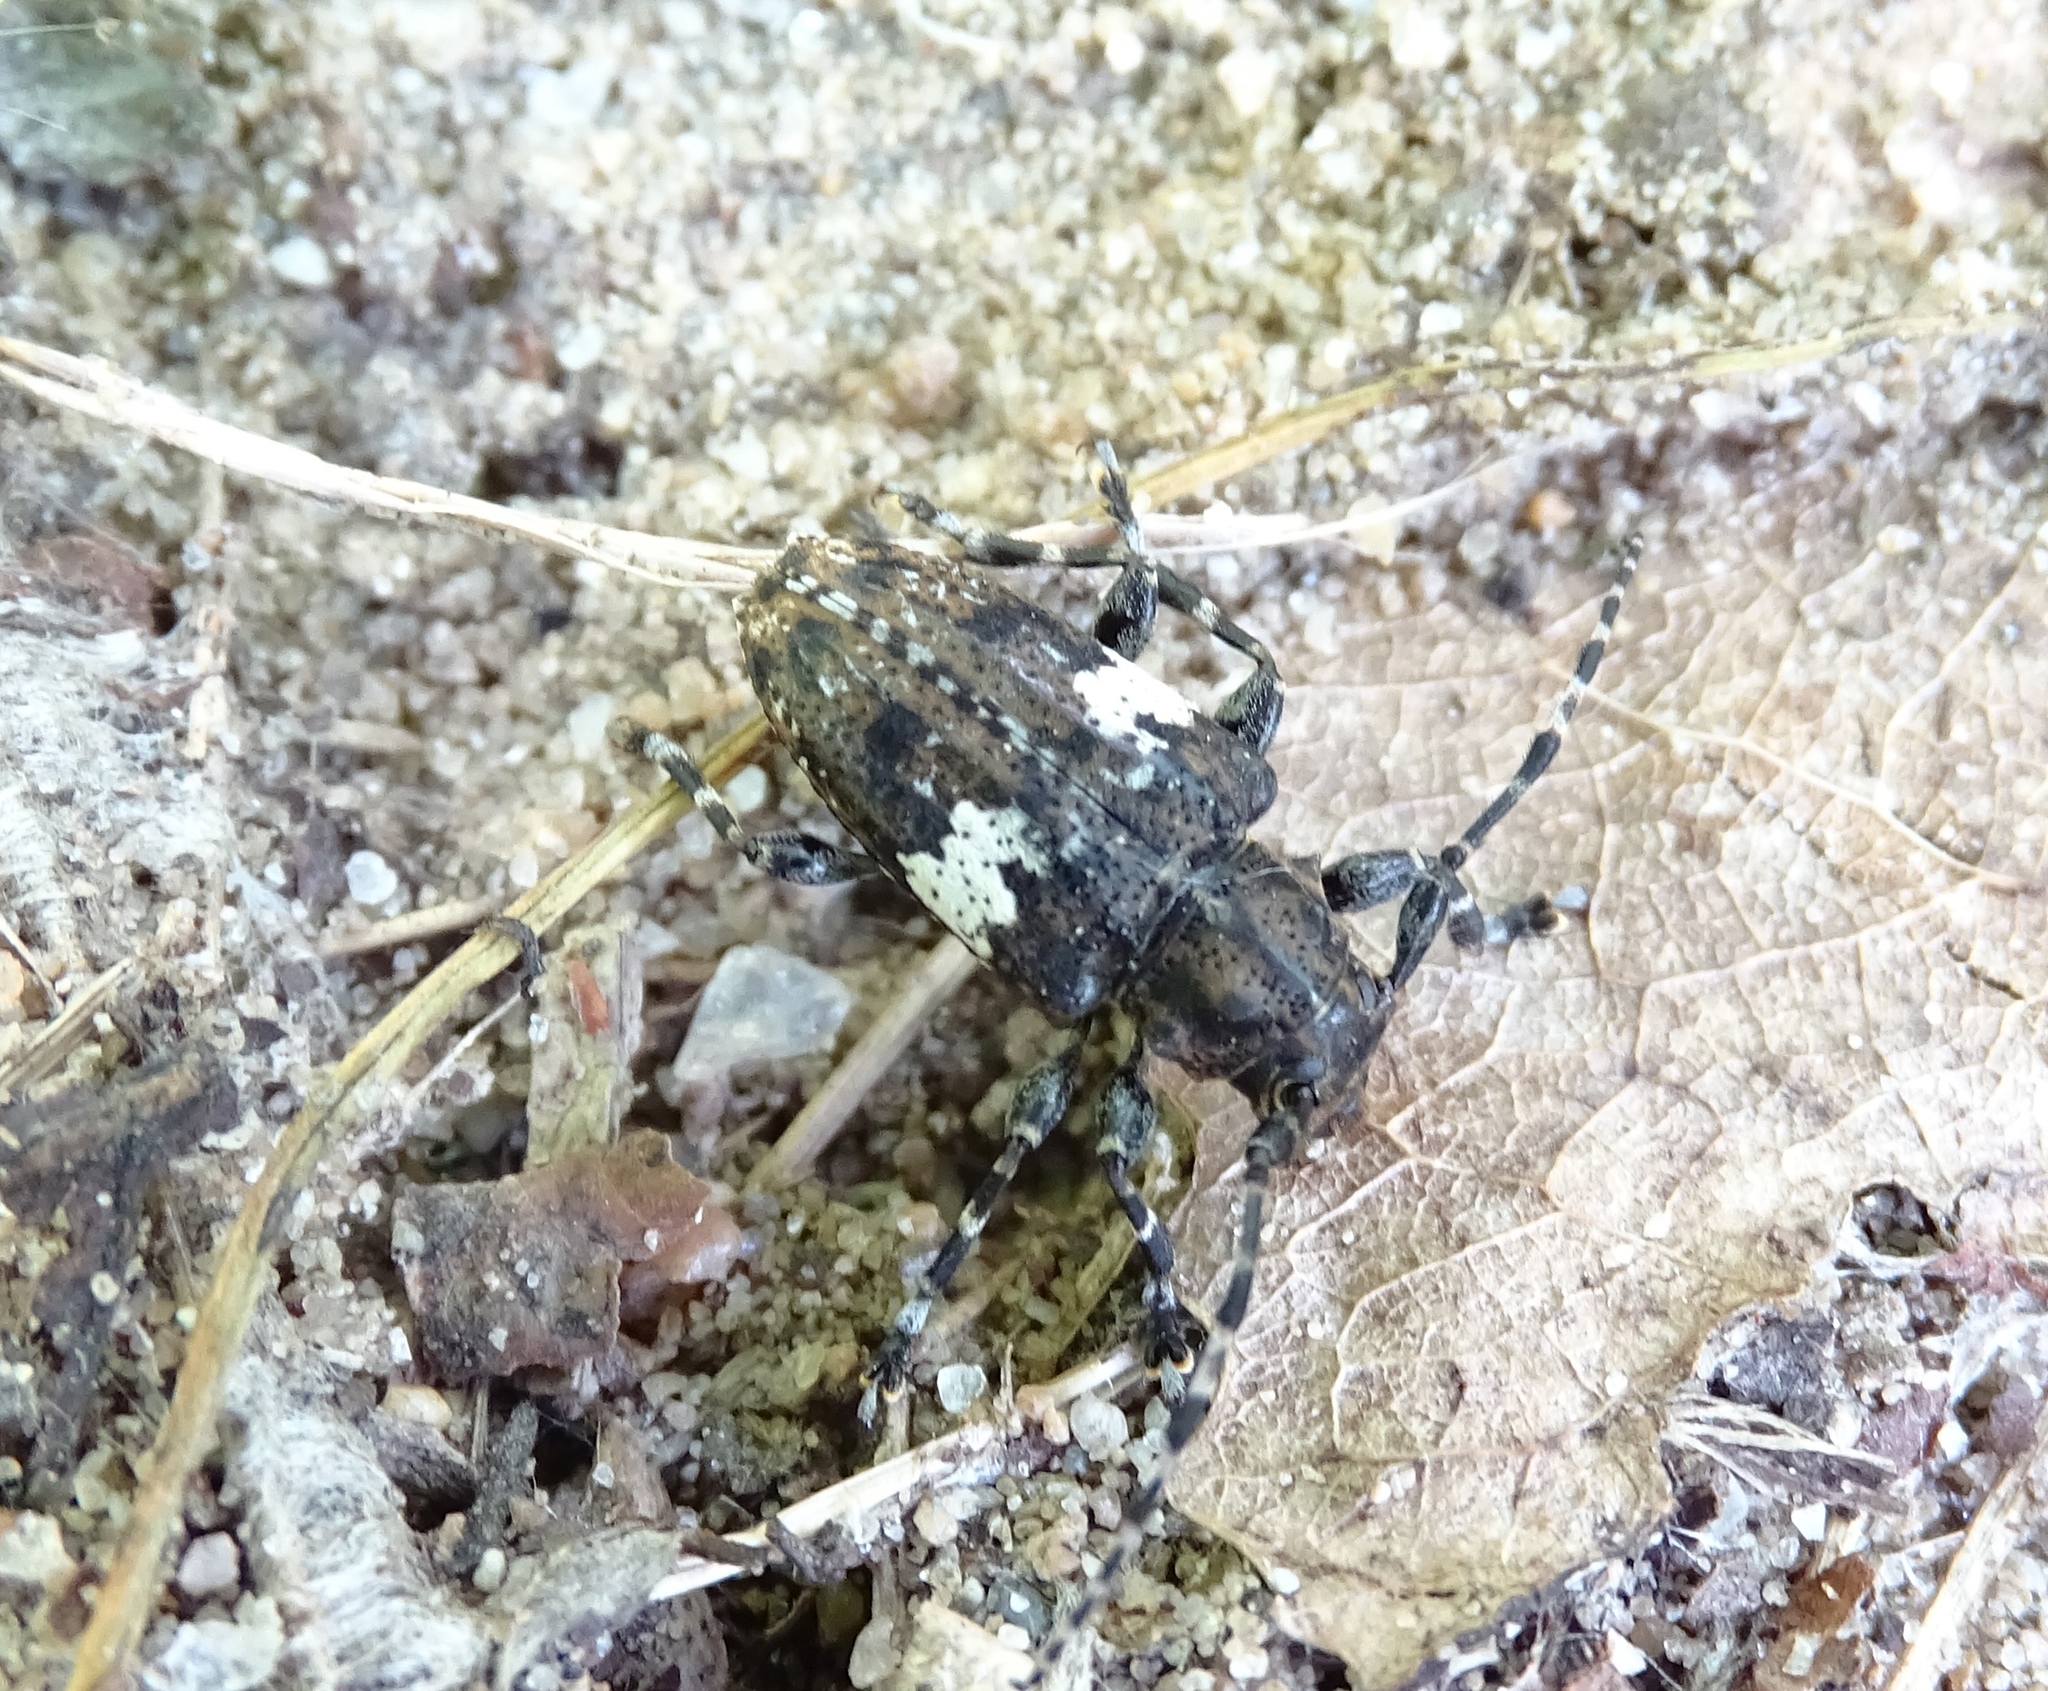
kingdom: Animalia
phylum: Arthropoda
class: Insecta
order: Coleoptera
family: Cerambycidae
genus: Acanthoderes
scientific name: Acanthoderes quadrigibba
